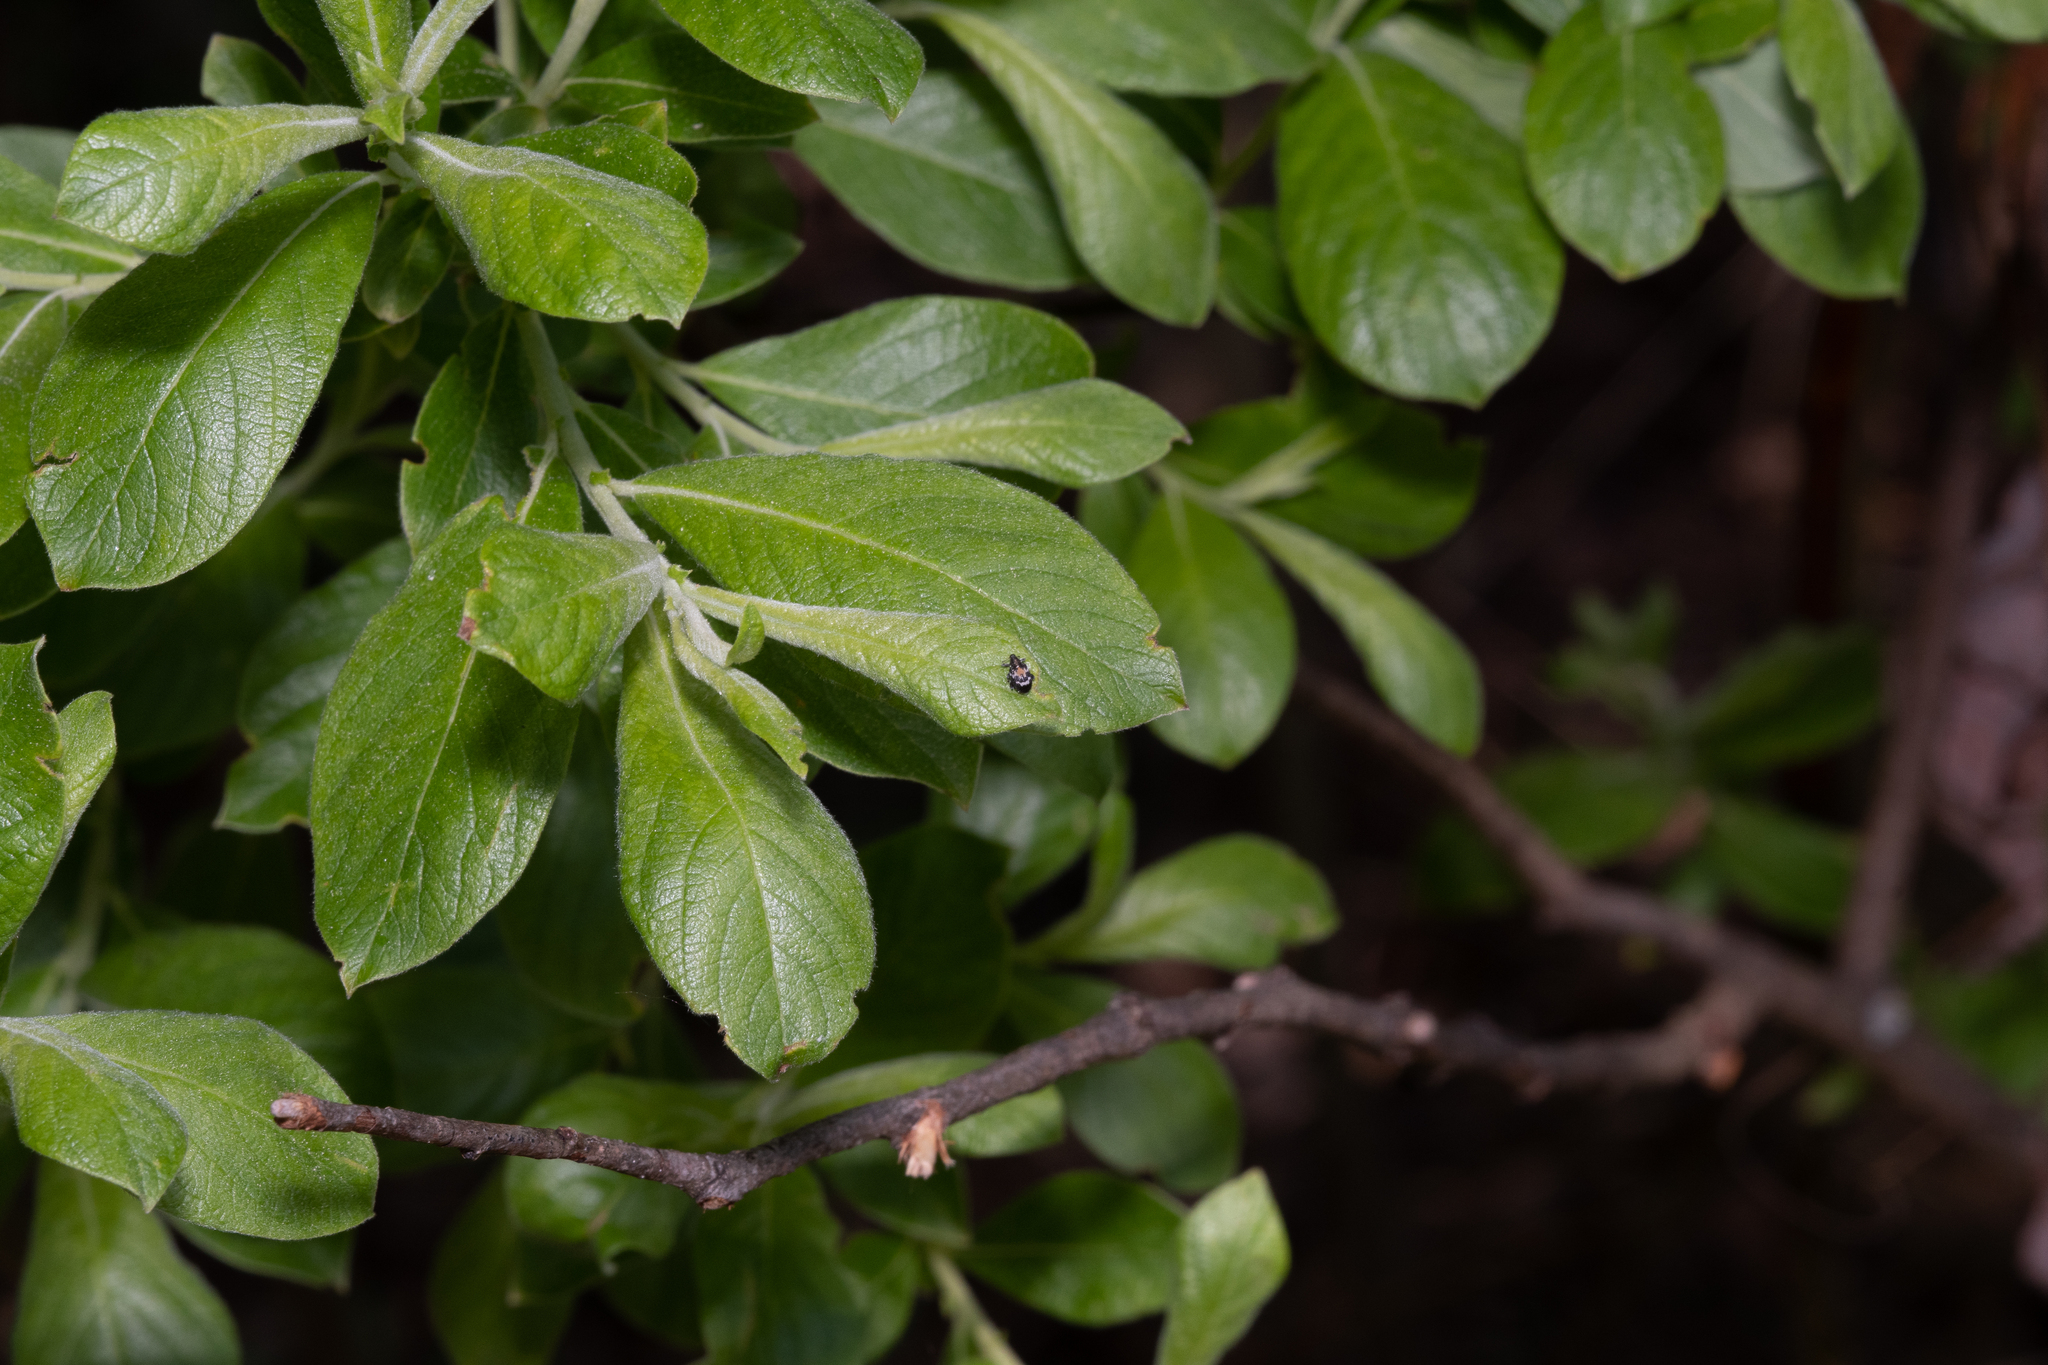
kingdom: Animalia
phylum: Arthropoda
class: Insecta
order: Coleoptera
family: Curculionidae
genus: Tachyerges
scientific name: Tachyerges salicis
